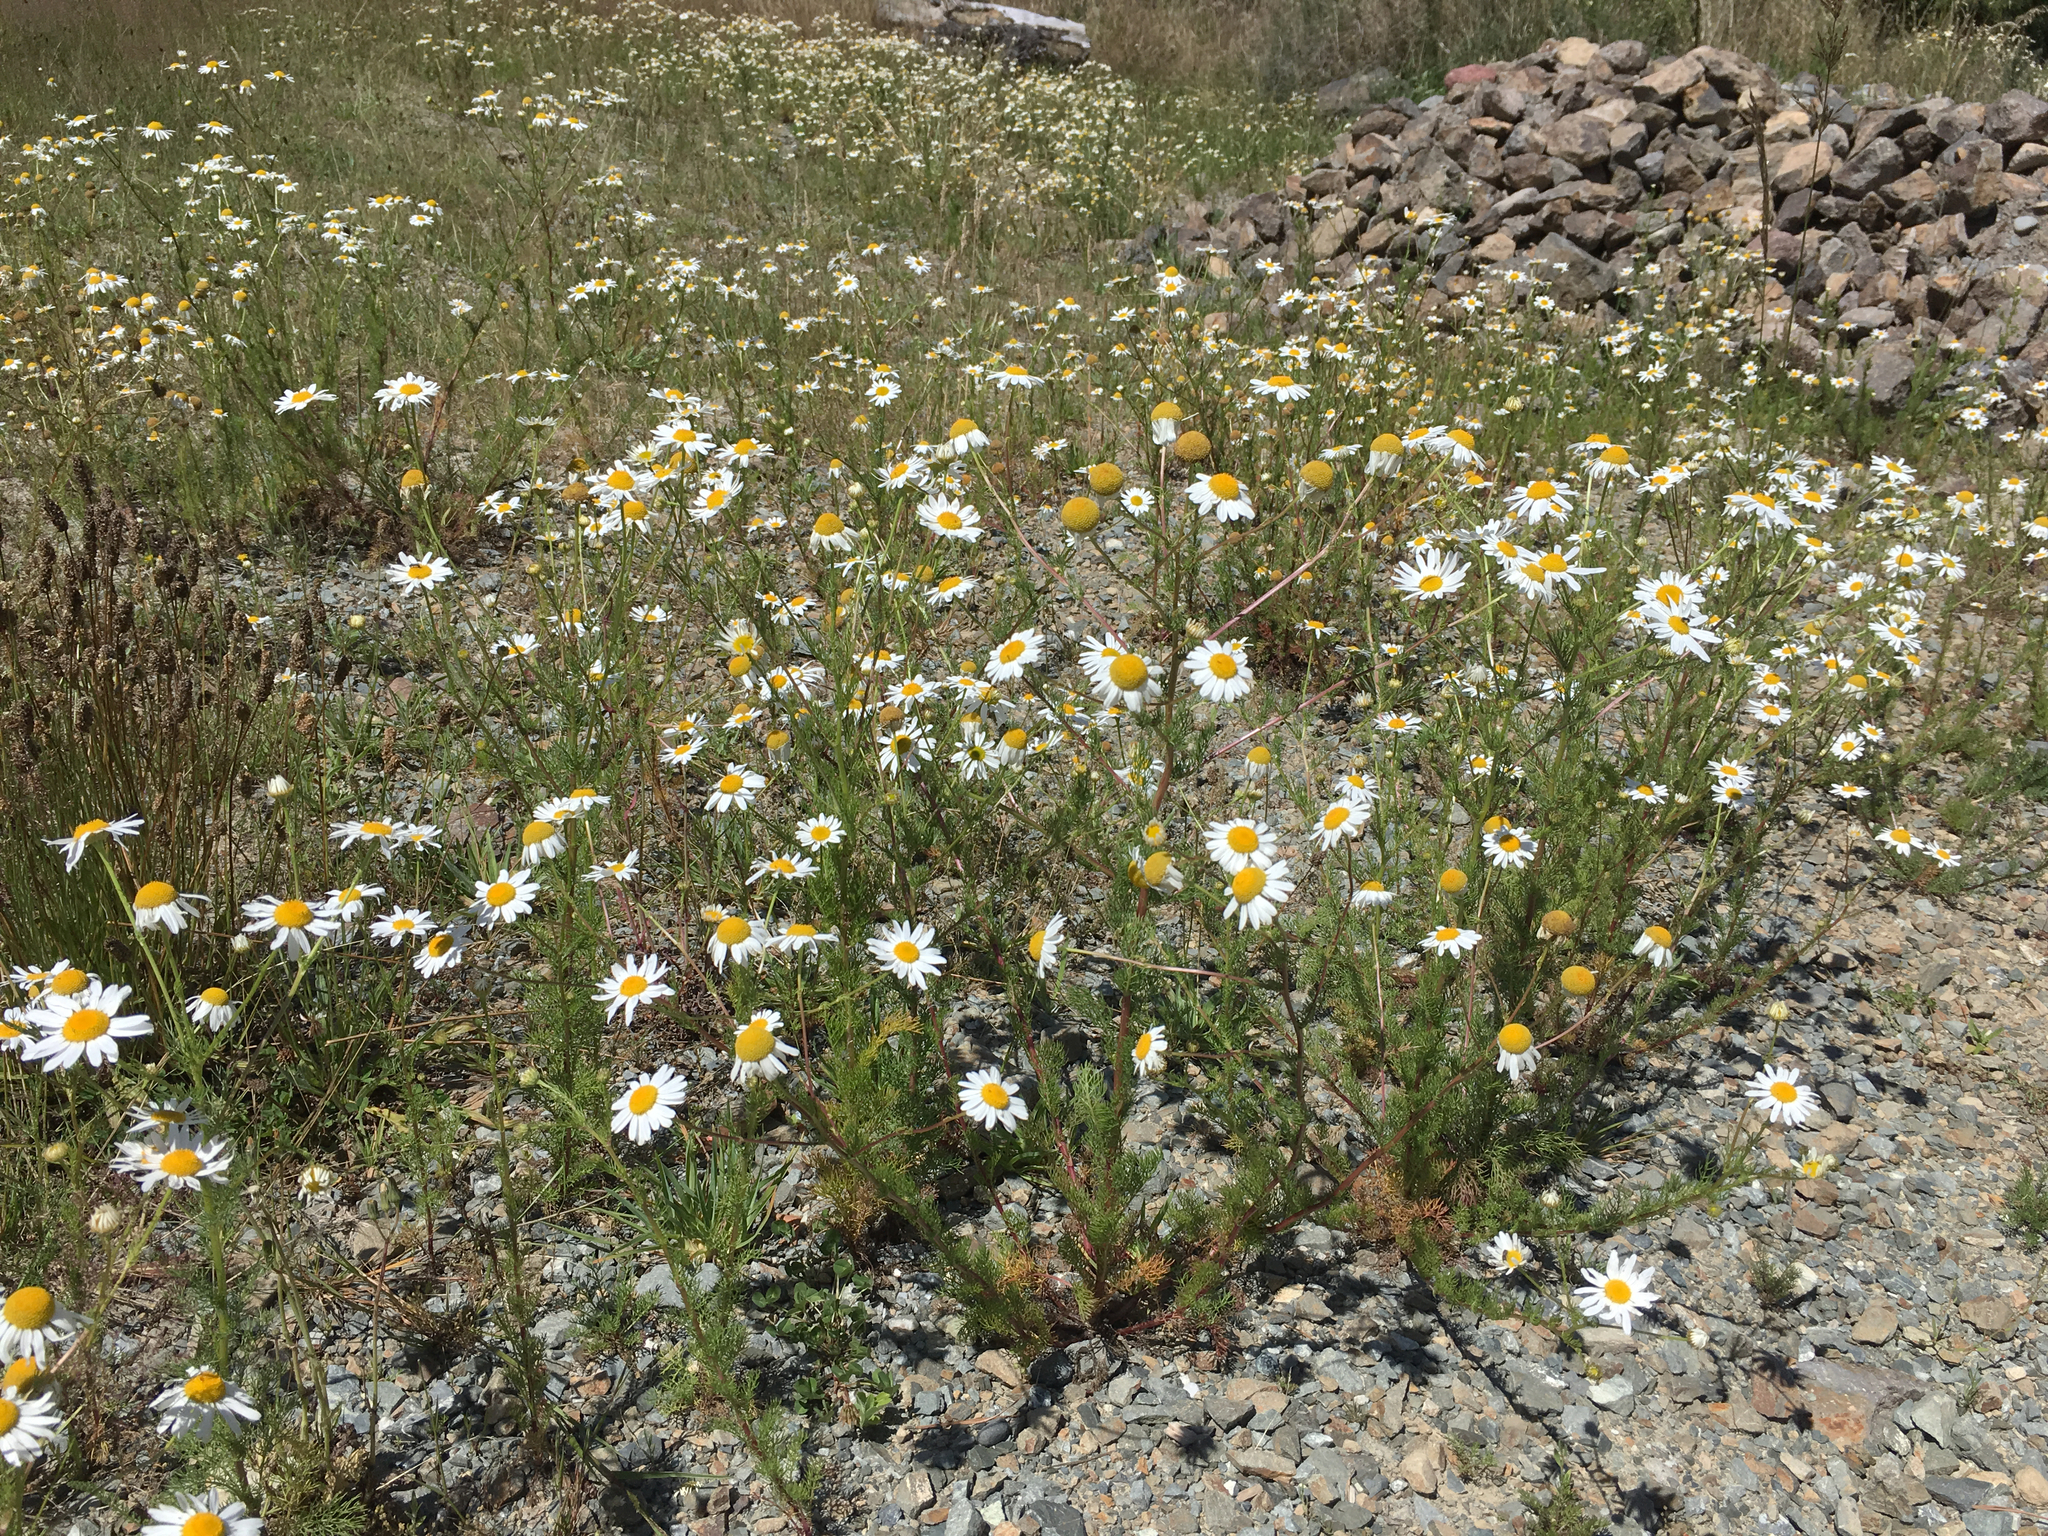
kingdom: Plantae
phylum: Tracheophyta
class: Magnoliopsida
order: Asterales
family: Asteraceae
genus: Tripleurospermum
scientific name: Tripleurospermum inodorum
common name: Scentless mayweed
